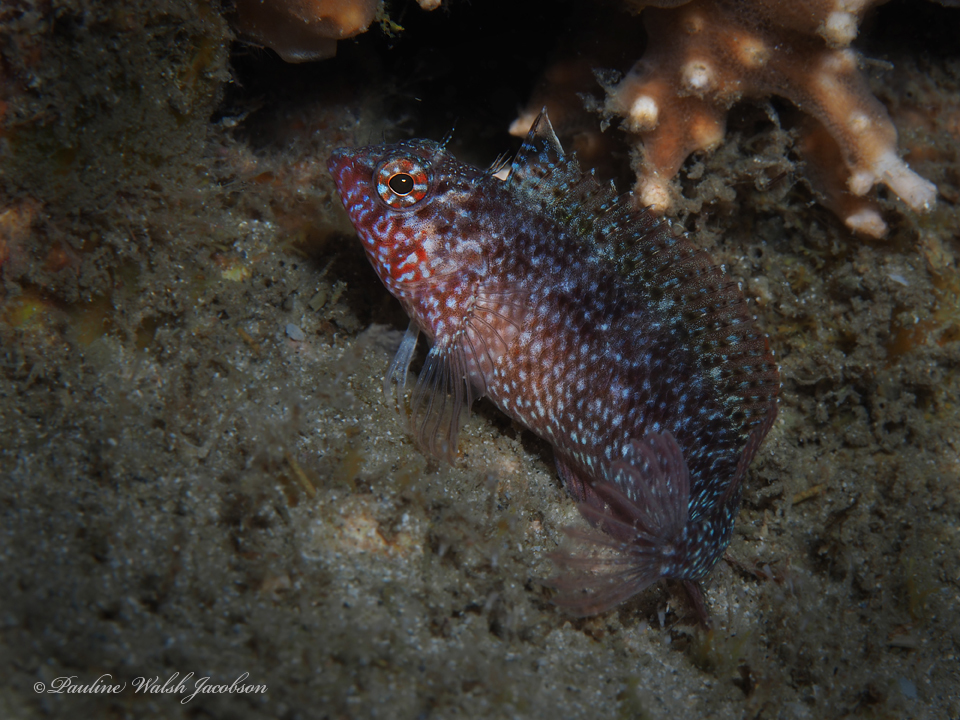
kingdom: Animalia
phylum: Chordata
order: Perciformes
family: Labrisomidae
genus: Malacoctenus
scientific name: Malacoctenus macropus
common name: Rosy blenny
